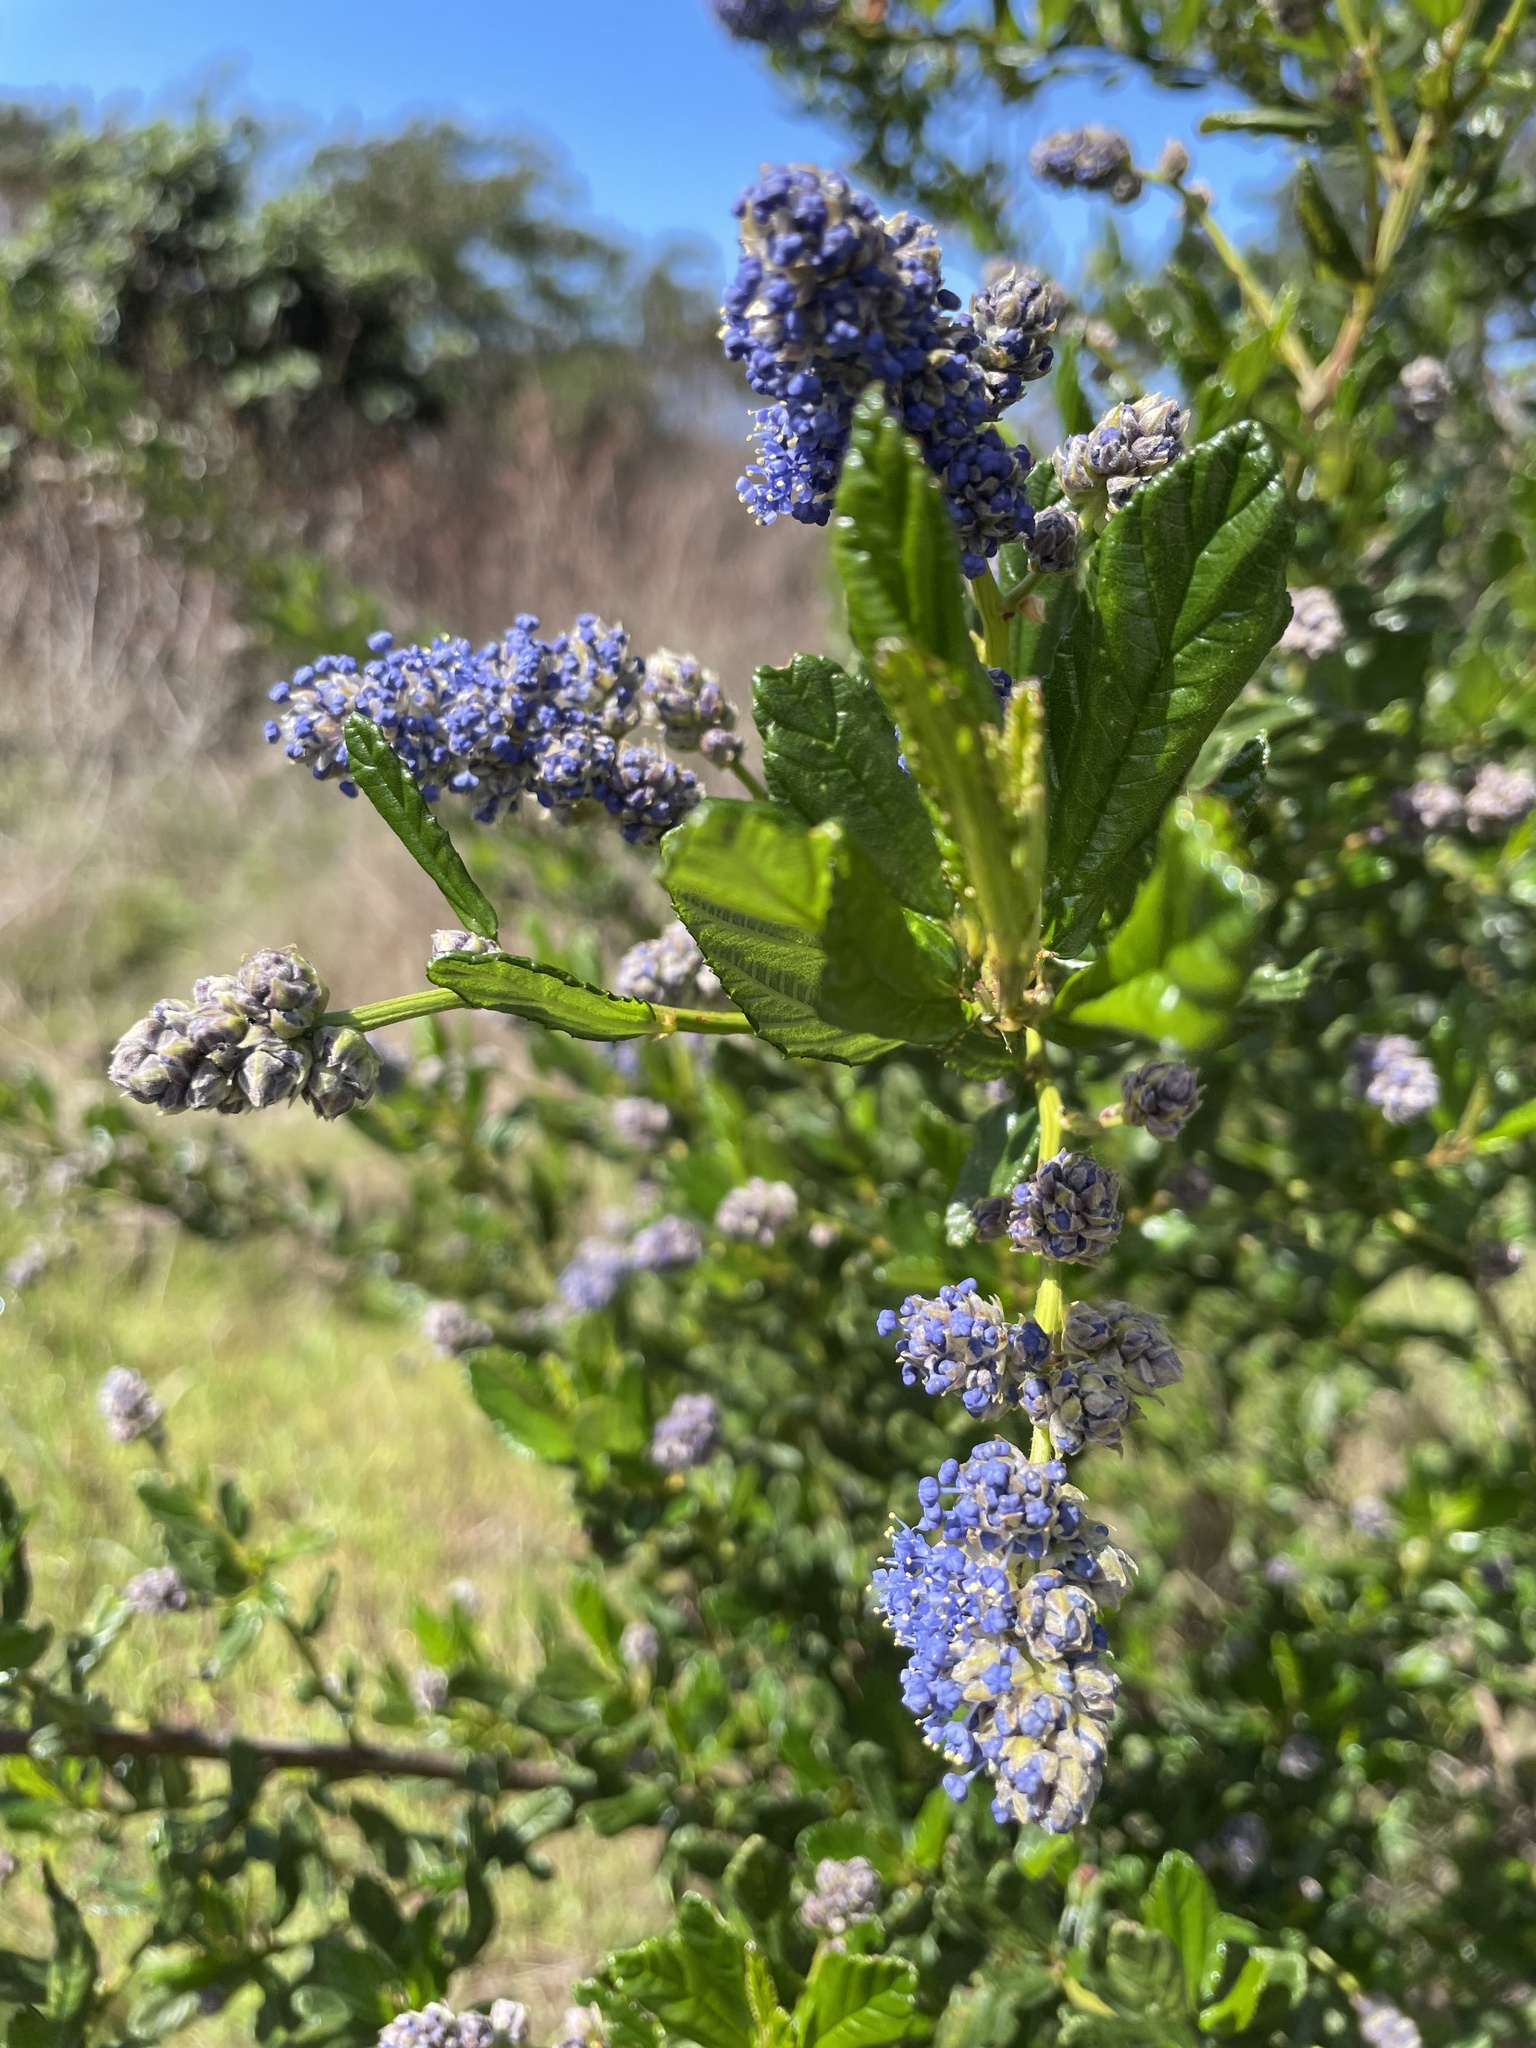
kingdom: Plantae
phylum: Tracheophyta
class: Magnoliopsida
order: Rosales
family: Rhamnaceae
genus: Ceanothus
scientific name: Ceanothus thyrsiflorus
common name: California-lilac
